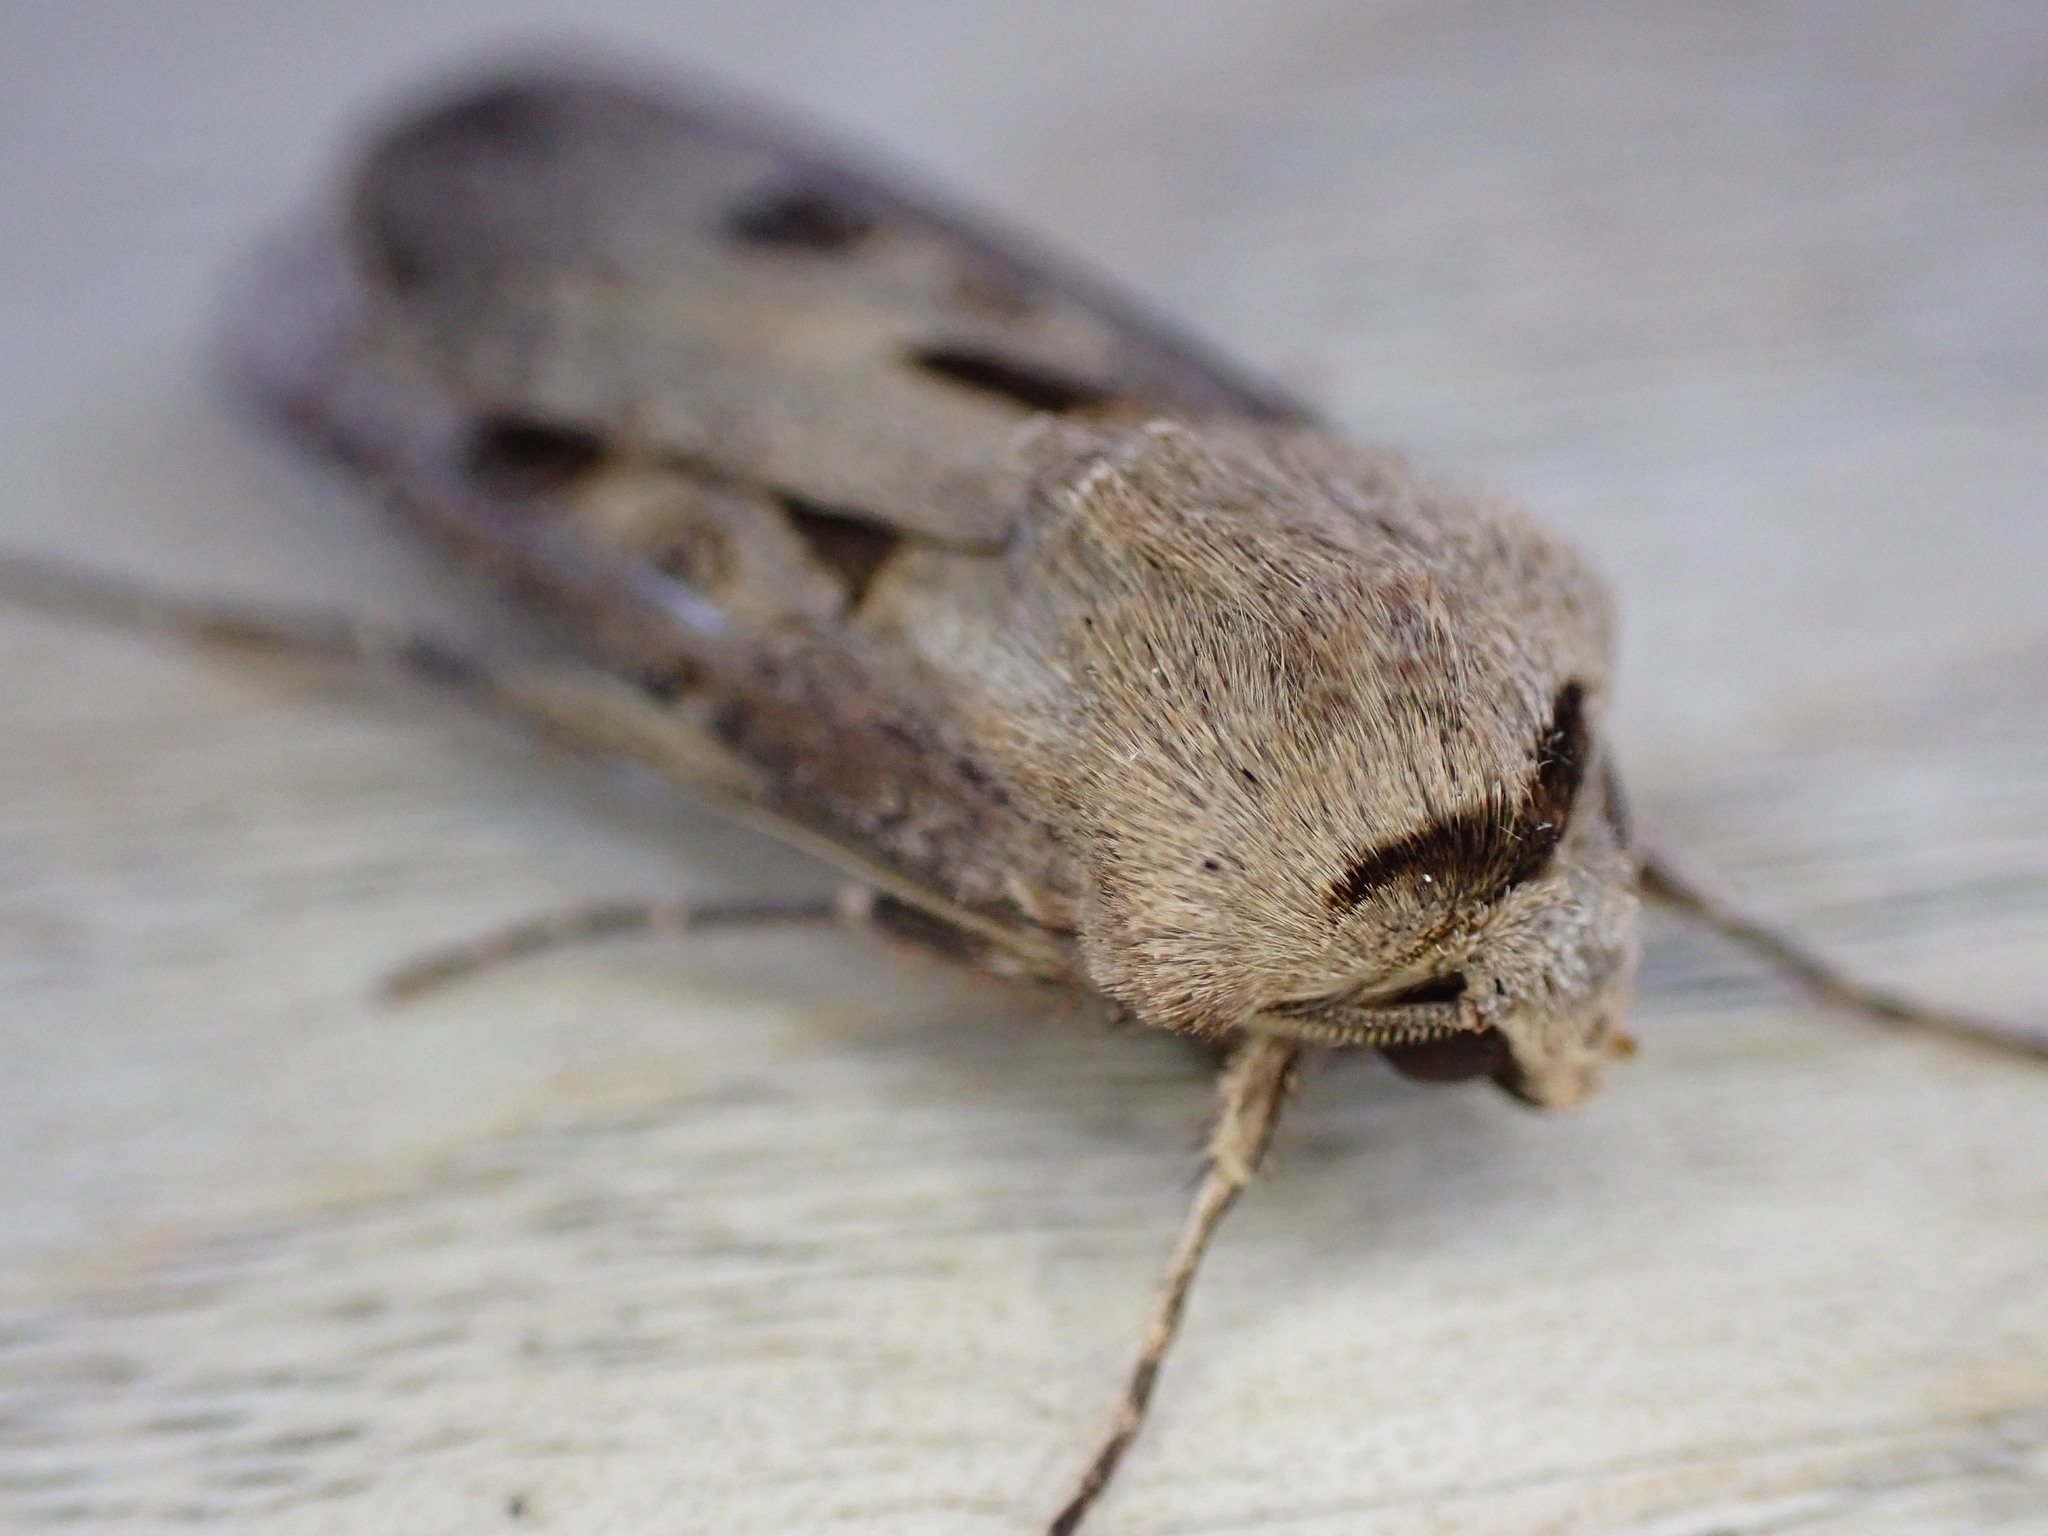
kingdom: Animalia
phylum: Arthropoda
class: Insecta
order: Lepidoptera
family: Noctuidae
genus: Agrotis
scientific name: Agrotis exclamationis
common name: Heart and dart
